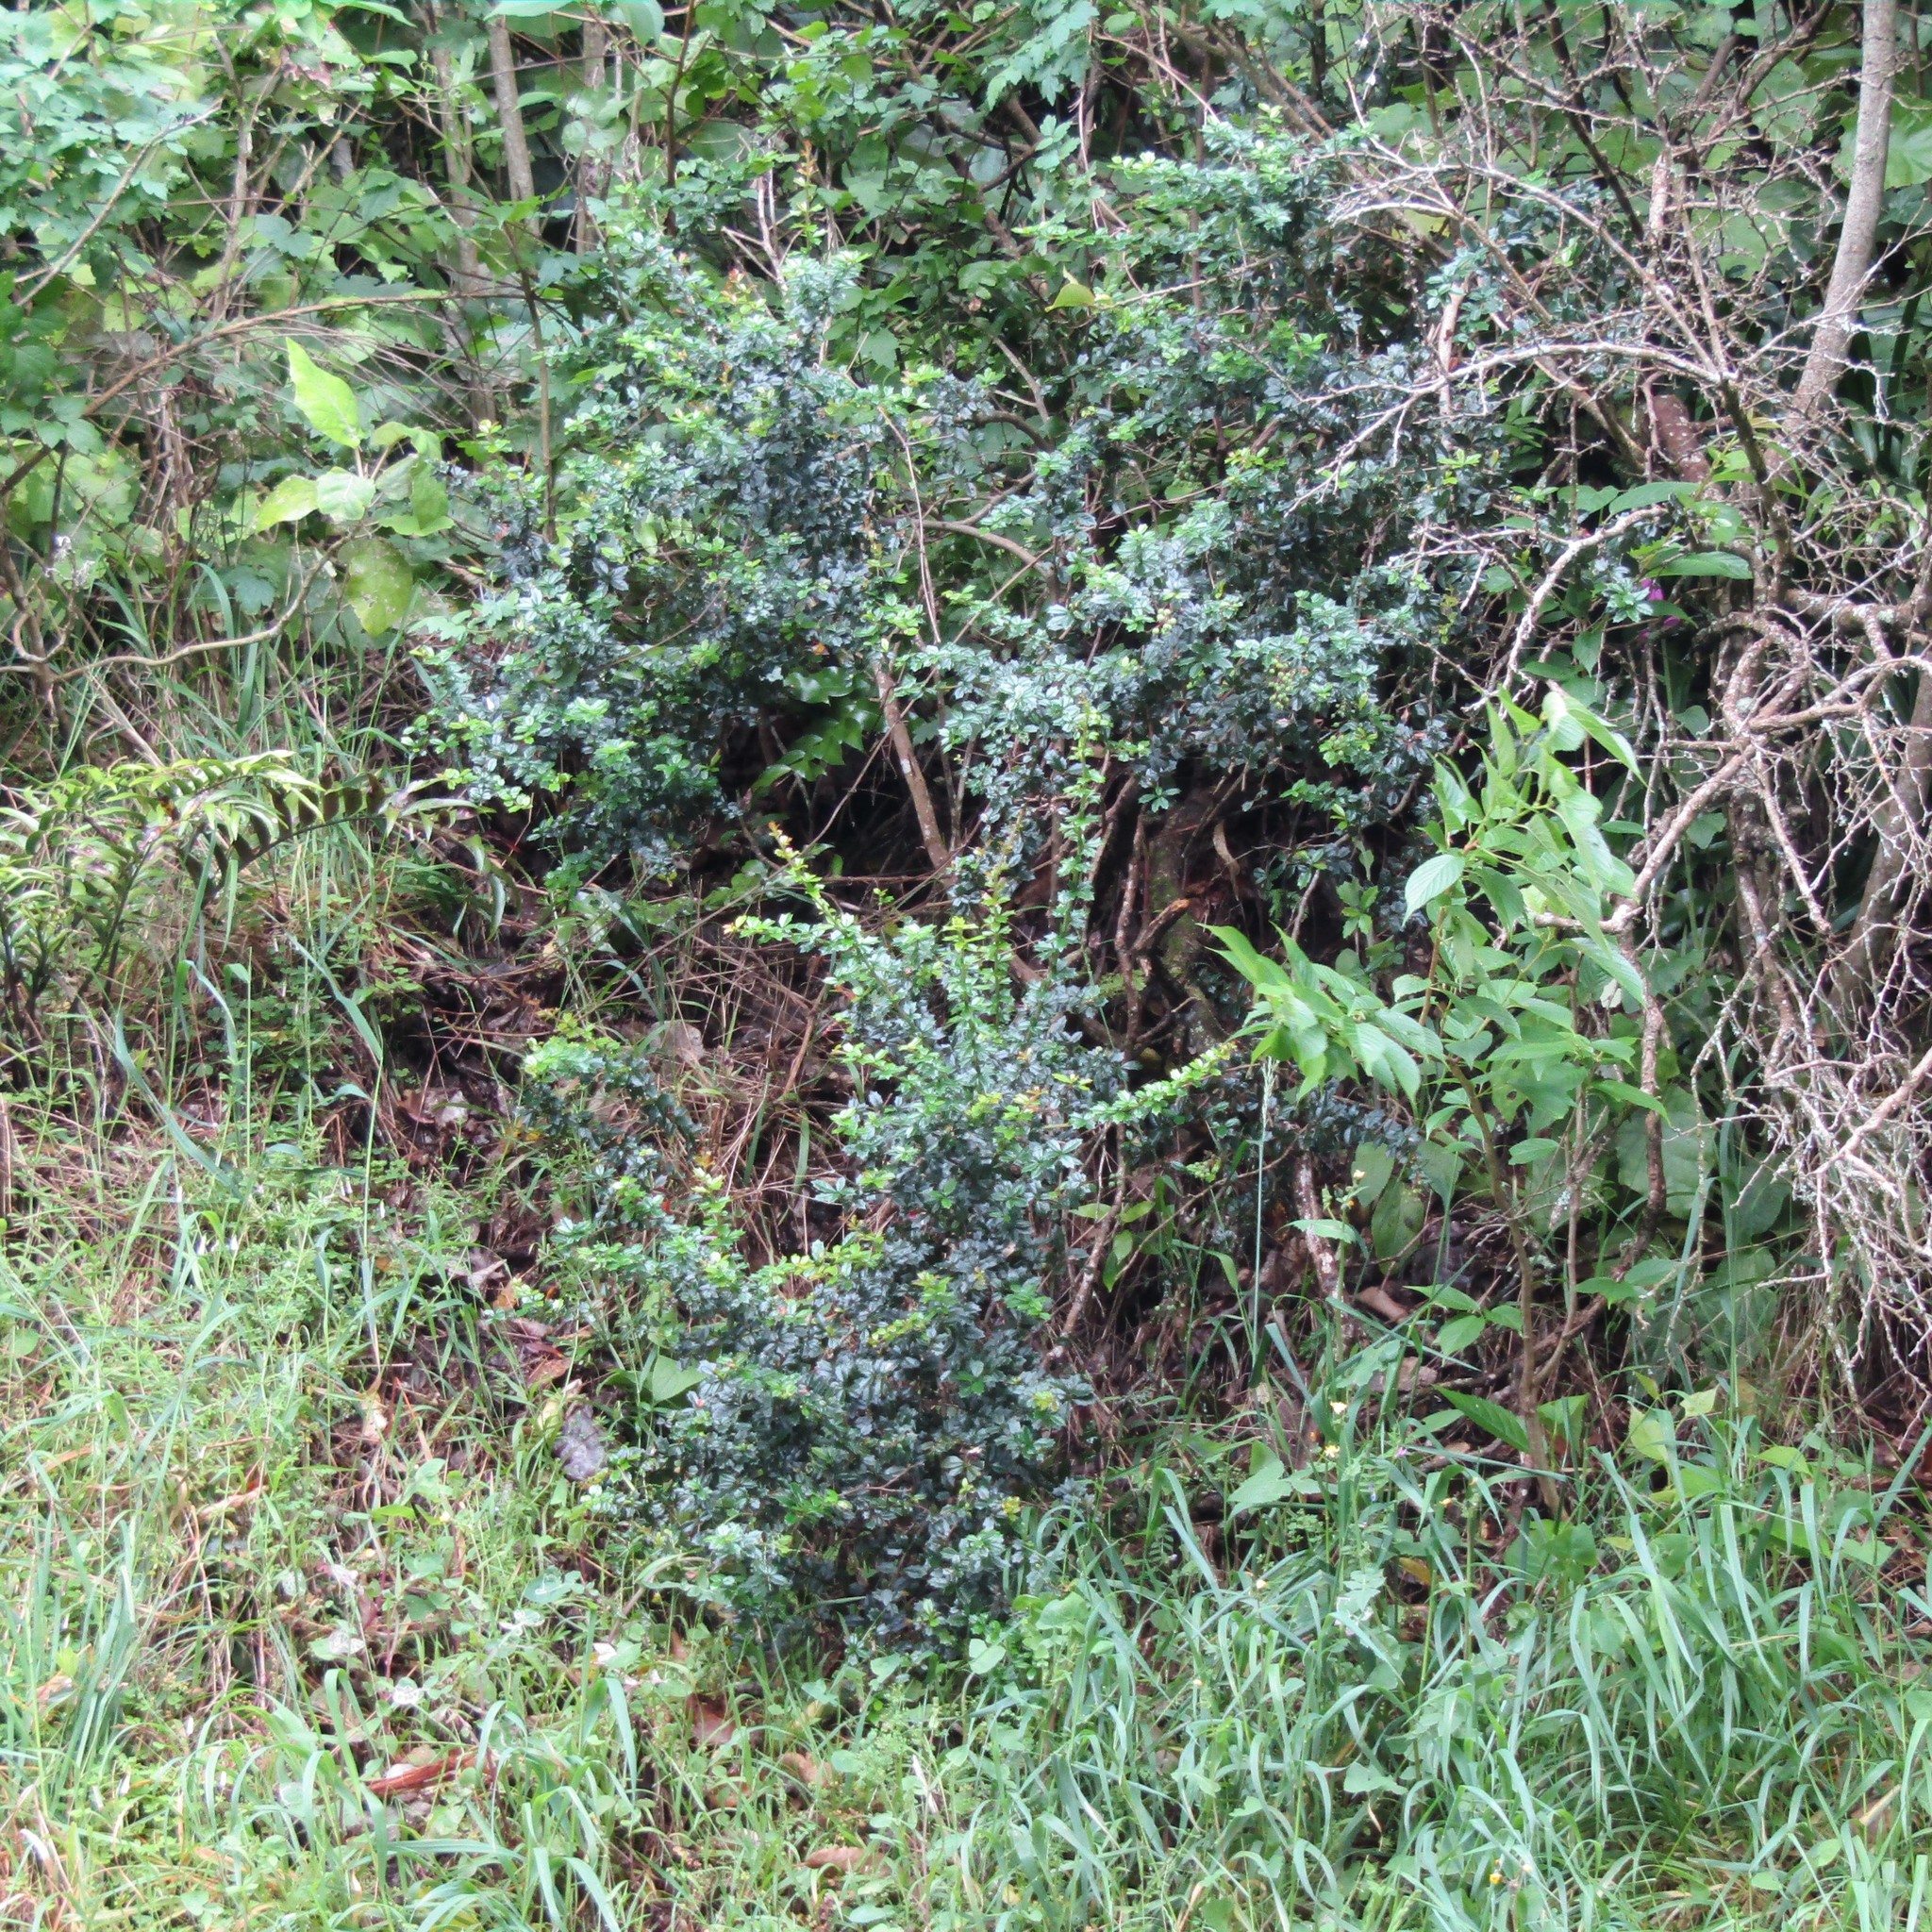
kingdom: Plantae
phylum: Tracheophyta
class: Magnoliopsida
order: Ranunculales
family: Berberidaceae
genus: Berberis
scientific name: Berberis darwinii
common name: Darwin's barberry
